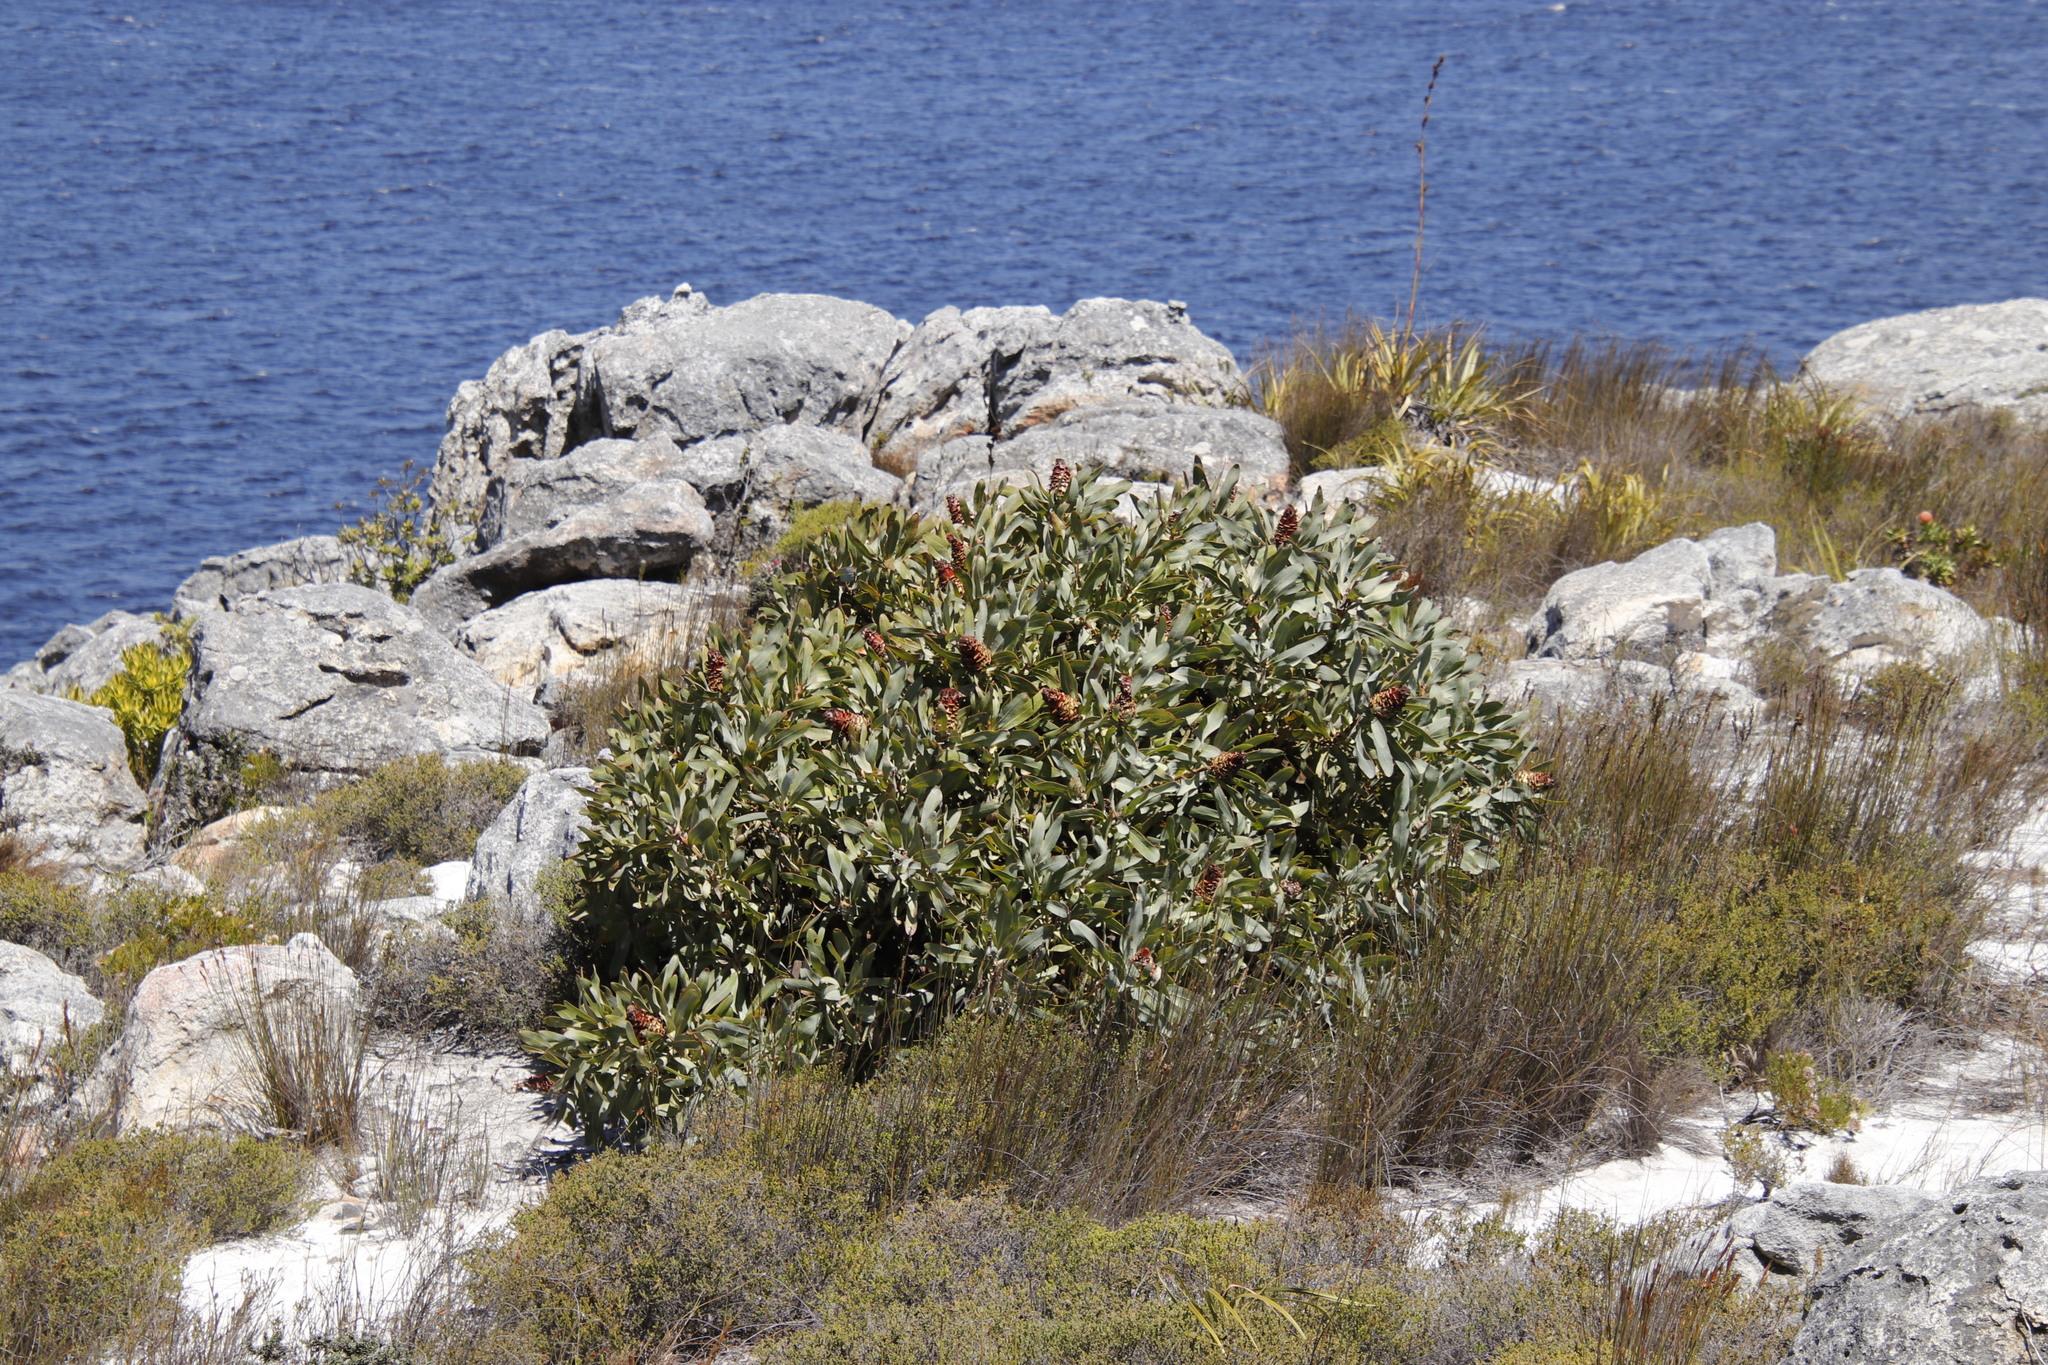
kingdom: Plantae
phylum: Tracheophyta
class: Magnoliopsida
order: Proteales
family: Proteaceae
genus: Protea
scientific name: Protea magnifica
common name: Bearded sugarbush
